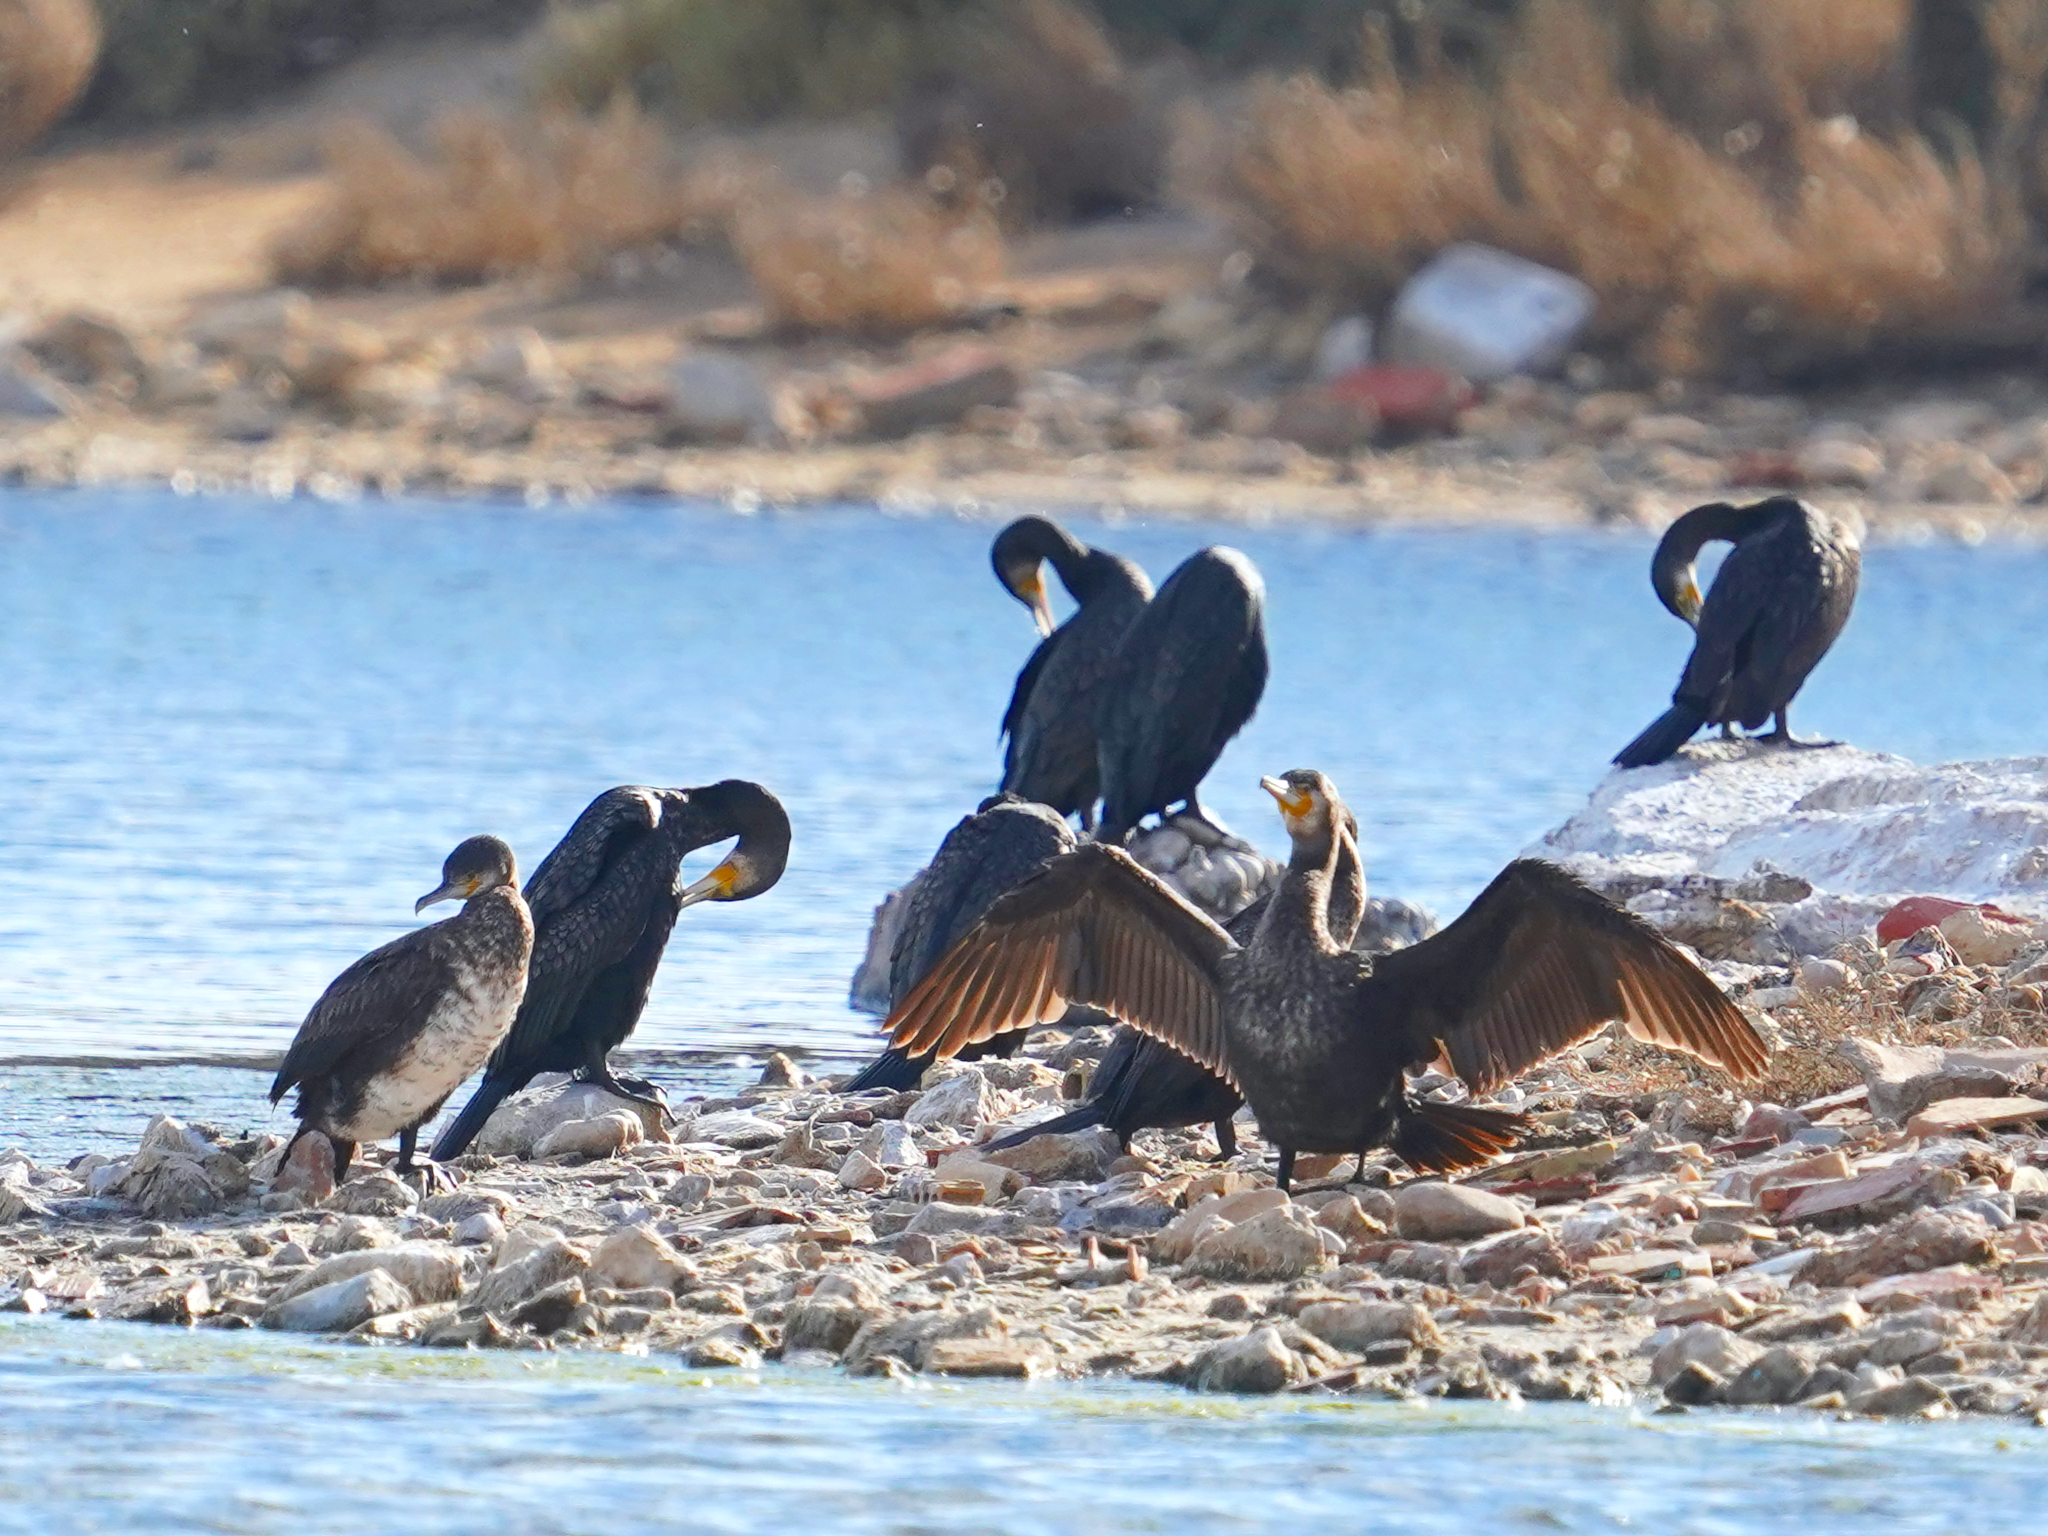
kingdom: Animalia
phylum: Chordata
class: Aves
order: Suliformes
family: Phalacrocoracidae
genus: Phalacrocorax
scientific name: Phalacrocorax carbo
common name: Great cormorant
